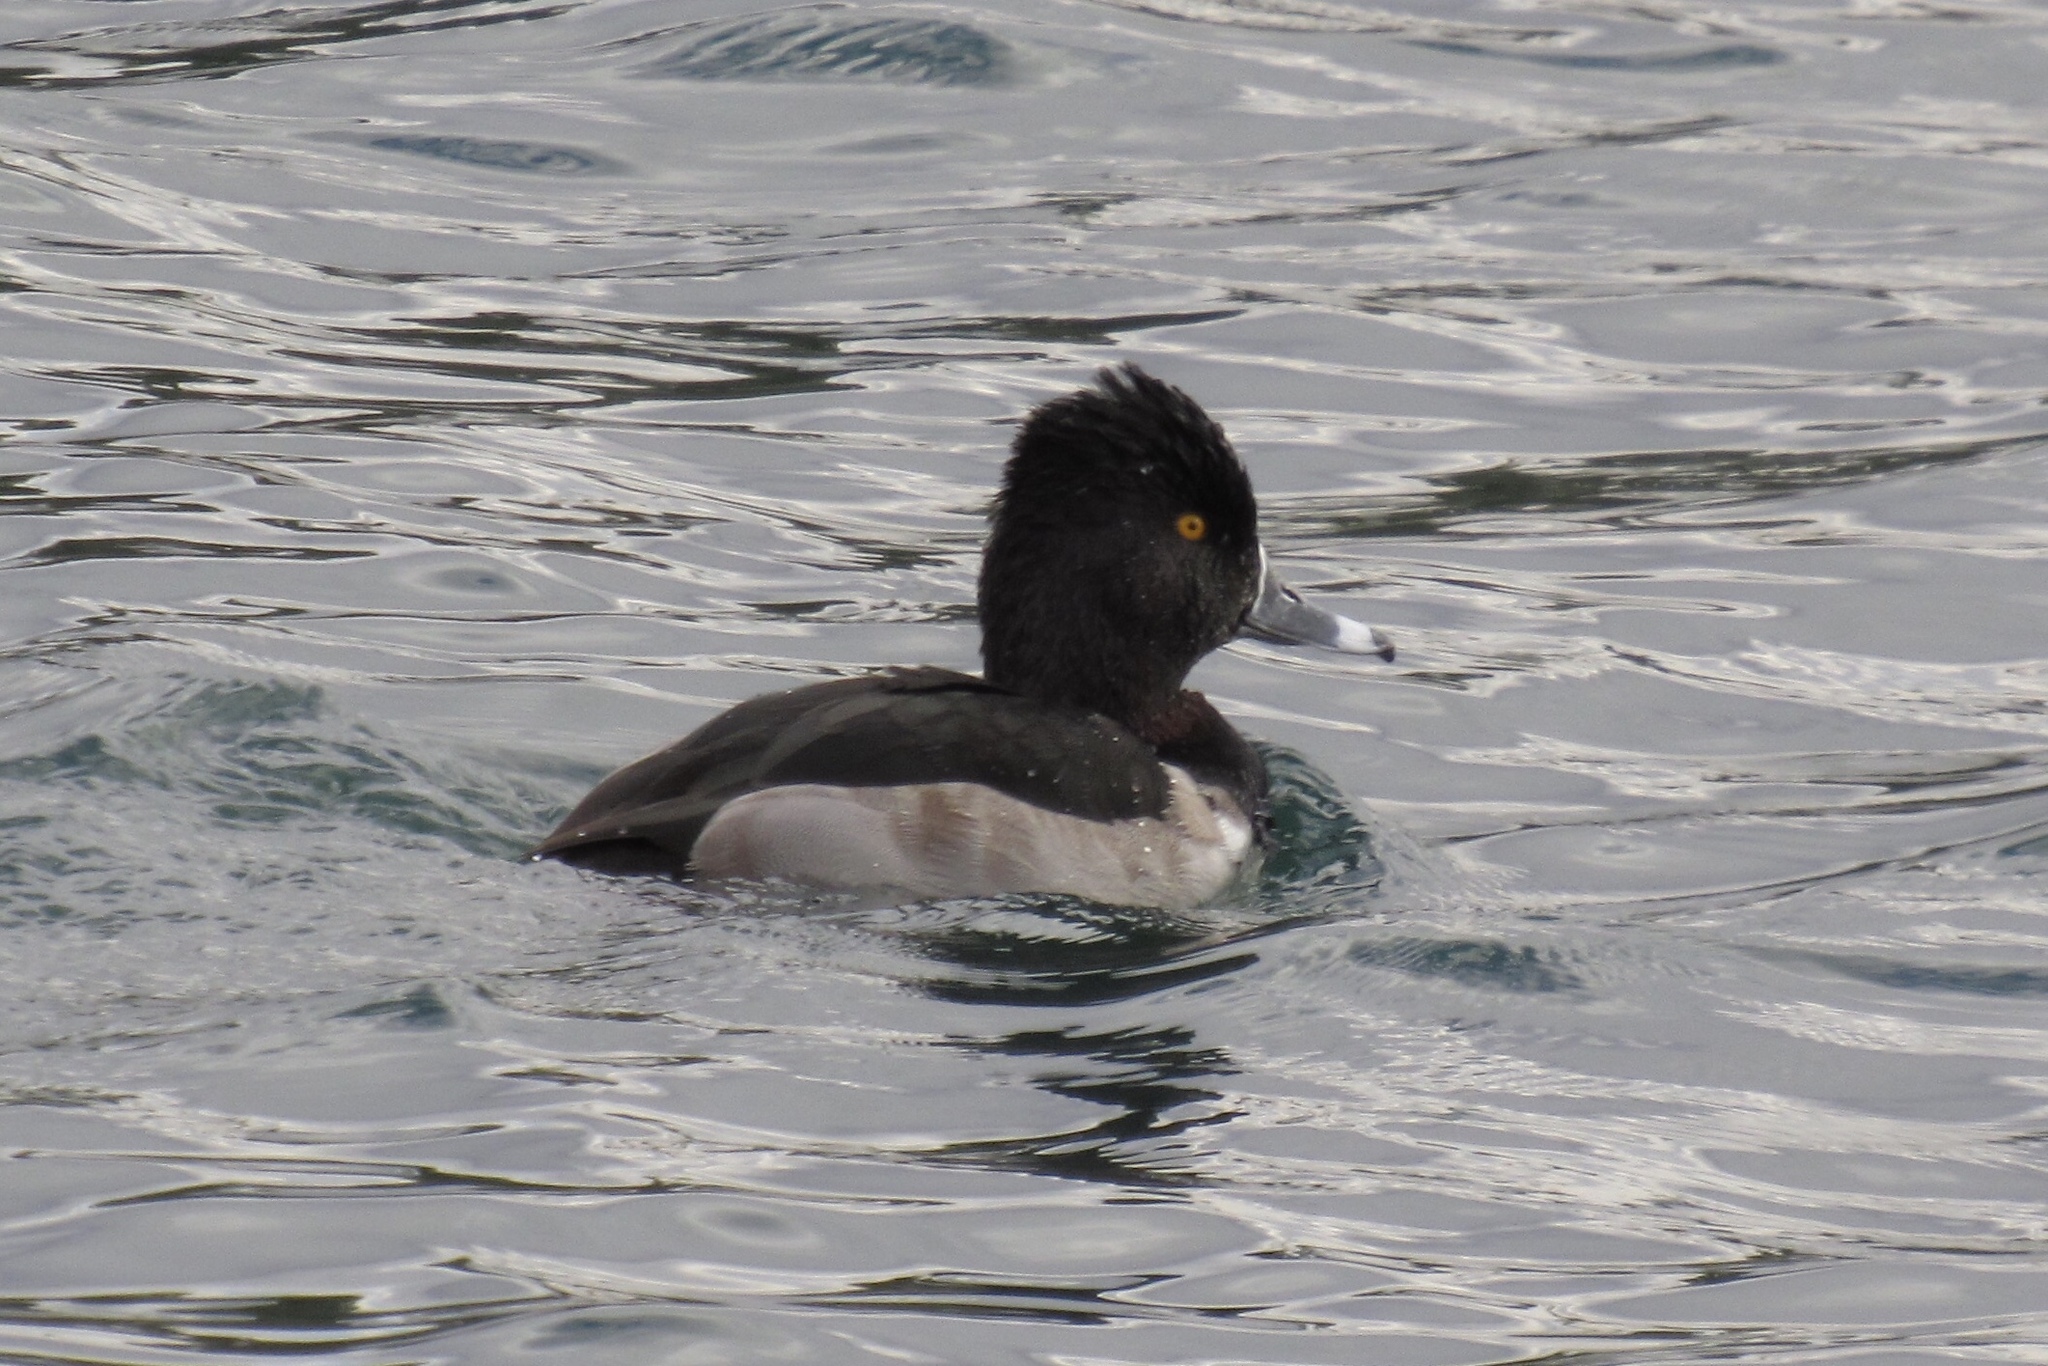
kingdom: Animalia
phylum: Chordata
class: Aves
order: Anseriformes
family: Anatidae
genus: Aythya
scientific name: Aythya collaris
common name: Ring-necked duck
